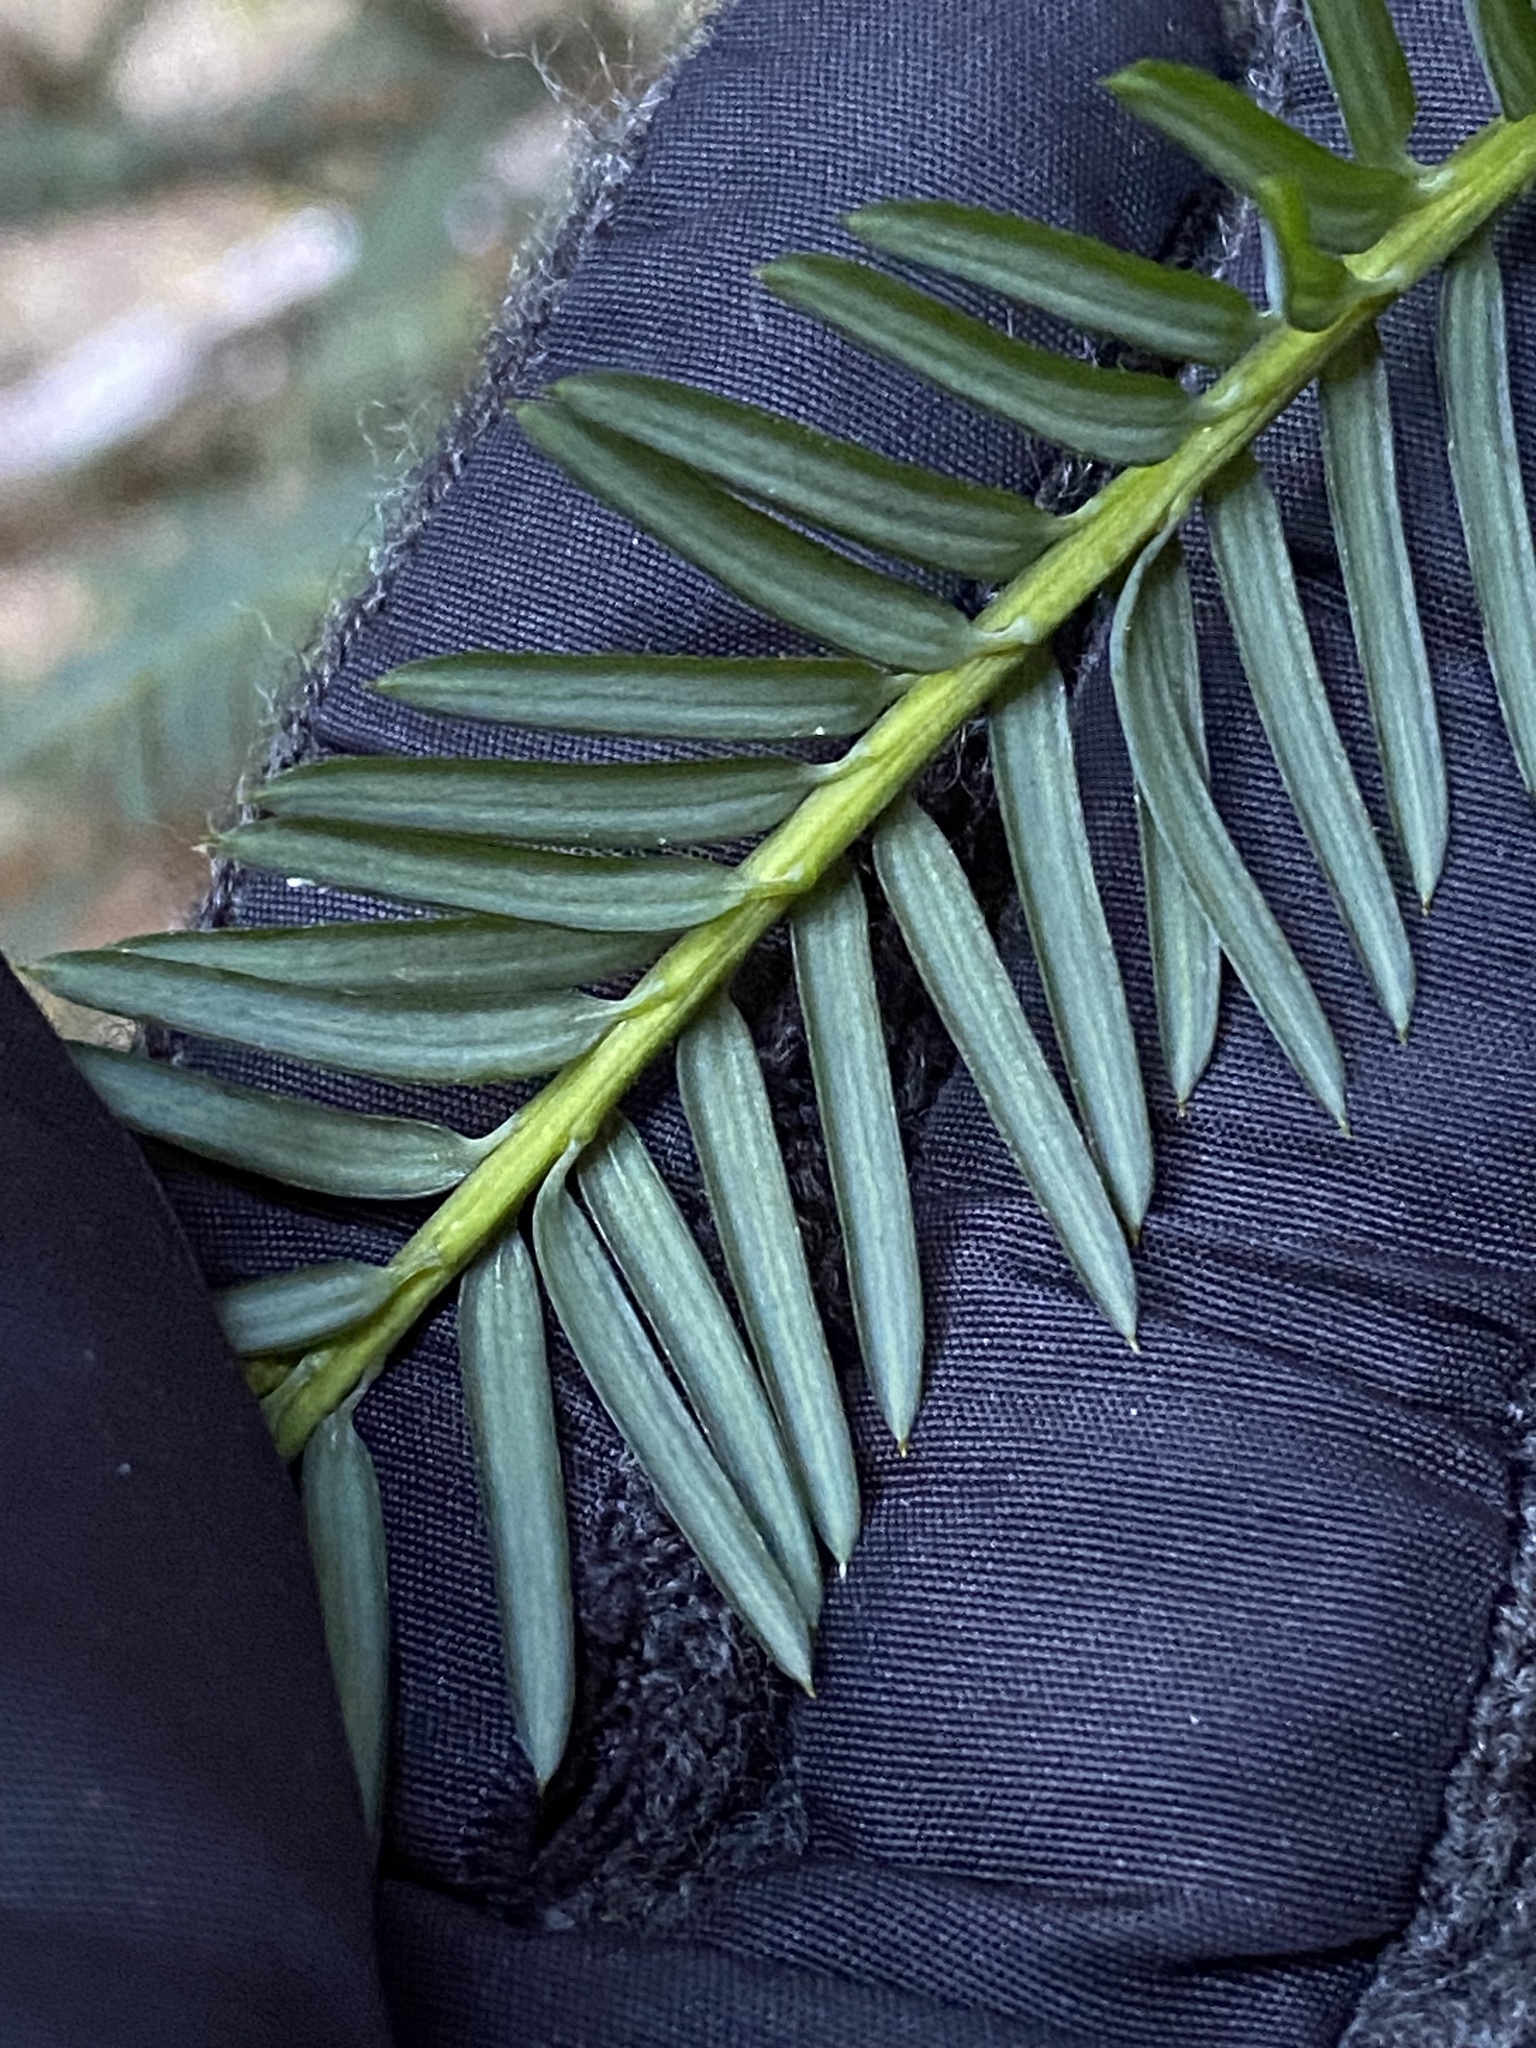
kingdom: Plantae
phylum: Tracheophyta
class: Pinopsida
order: Pinales
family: Taxaceae
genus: Taxus
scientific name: Taxus brevifolia
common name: Pacific yew
